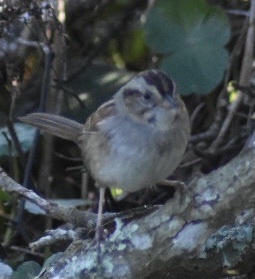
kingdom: Animalia
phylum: Chordata
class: Aves
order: Passeriformes
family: Passerellidae
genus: Melospiza
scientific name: Melospiza georgiana
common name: Swamp sparrow
